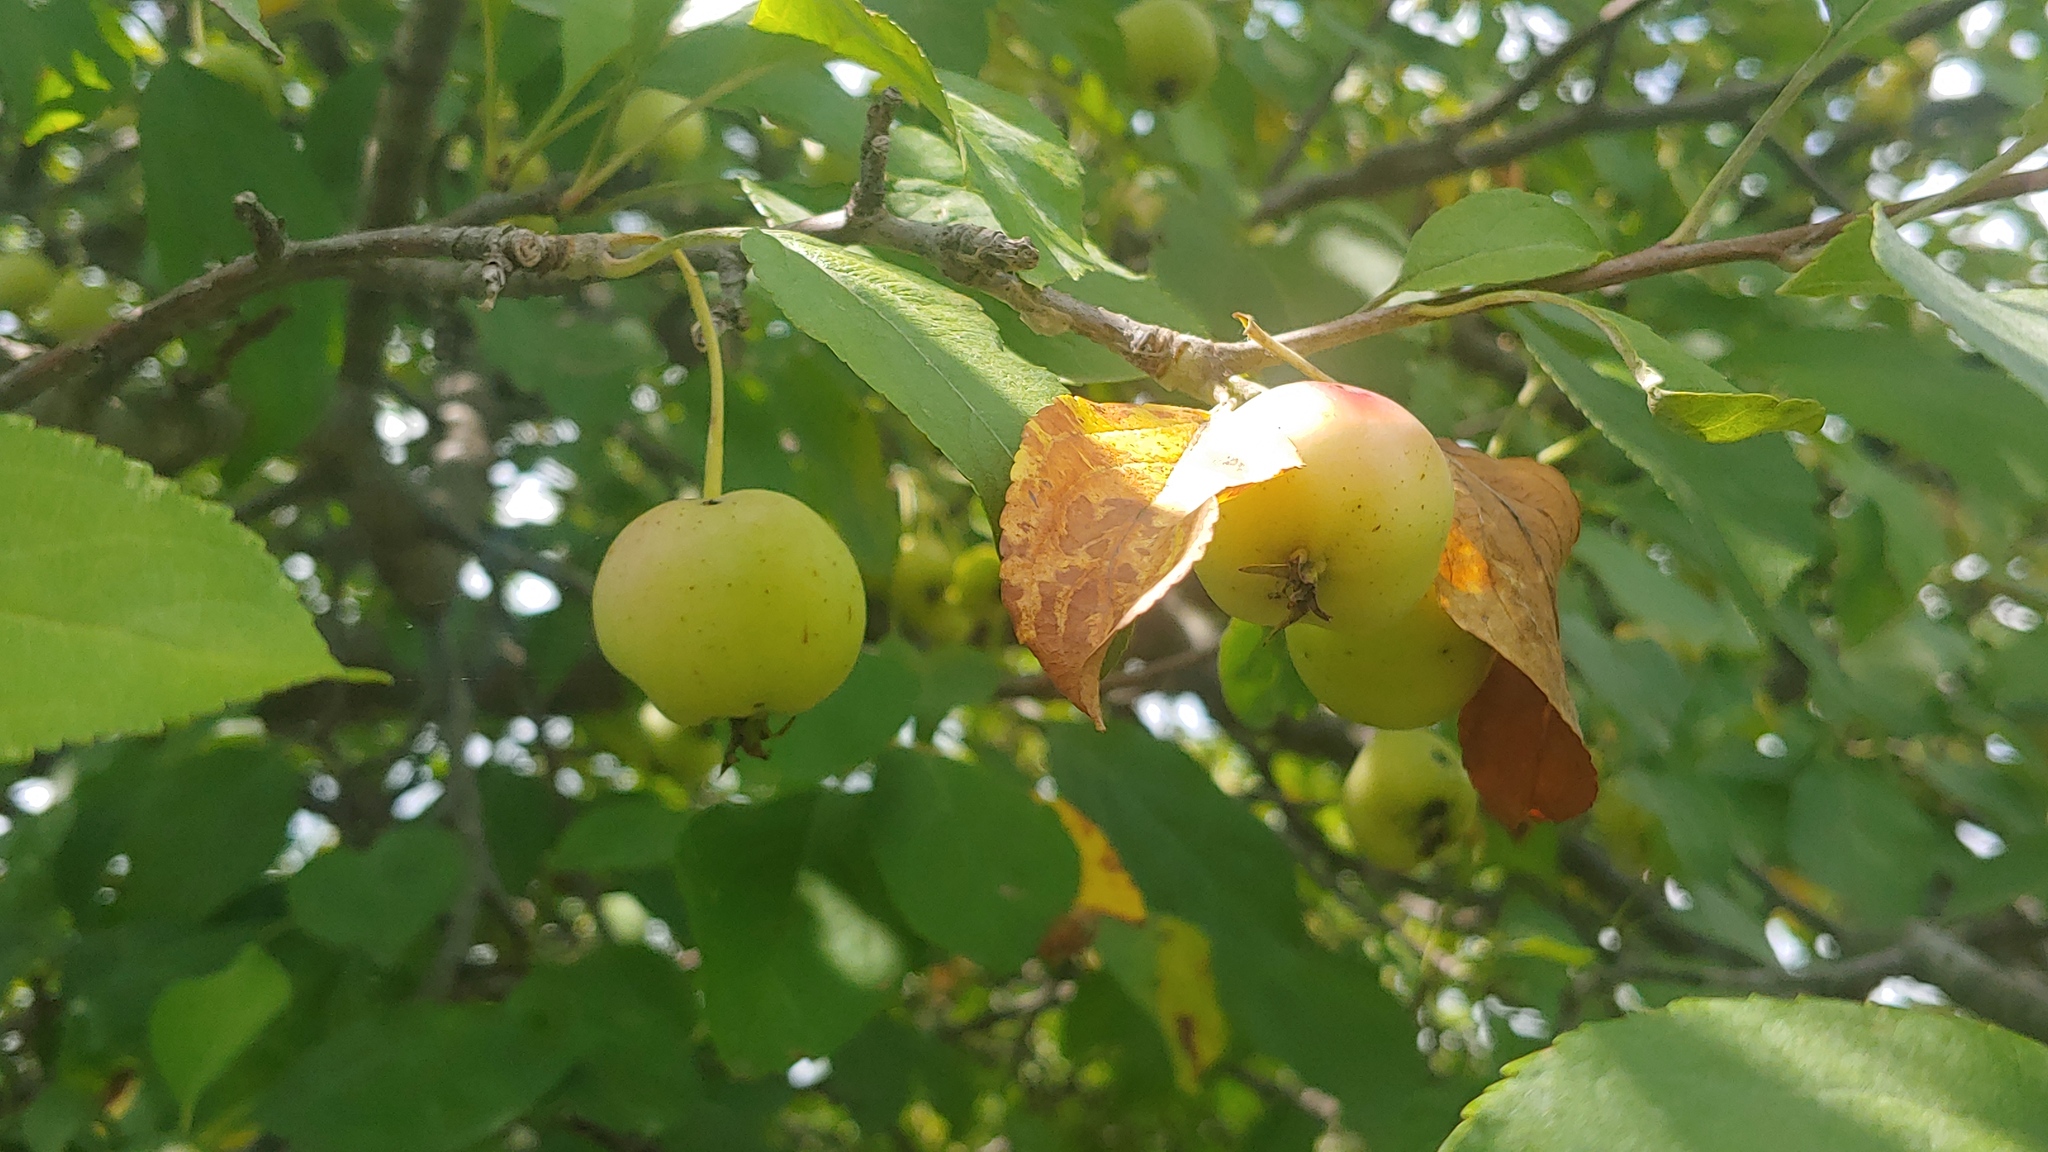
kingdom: Plantae
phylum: Tracheophyta
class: Magnoliopsida
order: Rosales
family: Rosaceae
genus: Malus
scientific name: Malus domestica
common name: Apple
